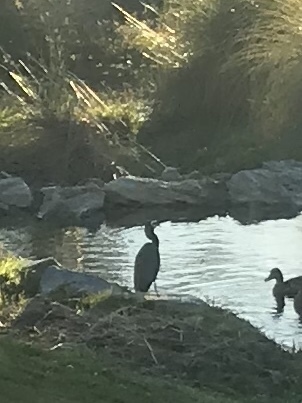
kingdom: Animalia
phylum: Chordata
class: Aves
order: Pelecaniformes
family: Ardeidae
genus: Egretta
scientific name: Egretta novaehollandiae
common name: White-faced heron
